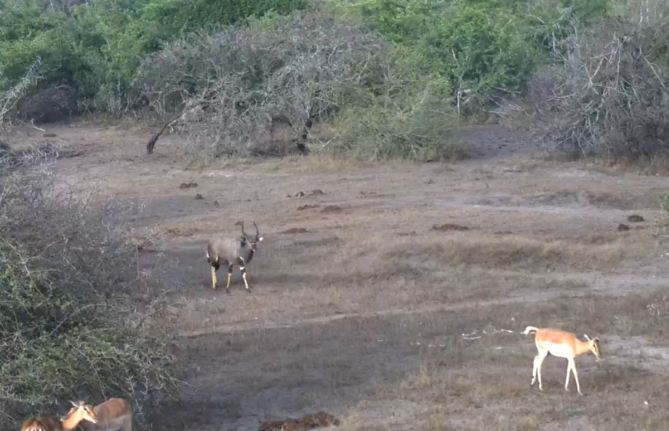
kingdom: Animalia
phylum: Chordata
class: Mammalia
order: Artiodactyla
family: Bovidae
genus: Aepyceros
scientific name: Aepyceros melampus
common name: Impala
